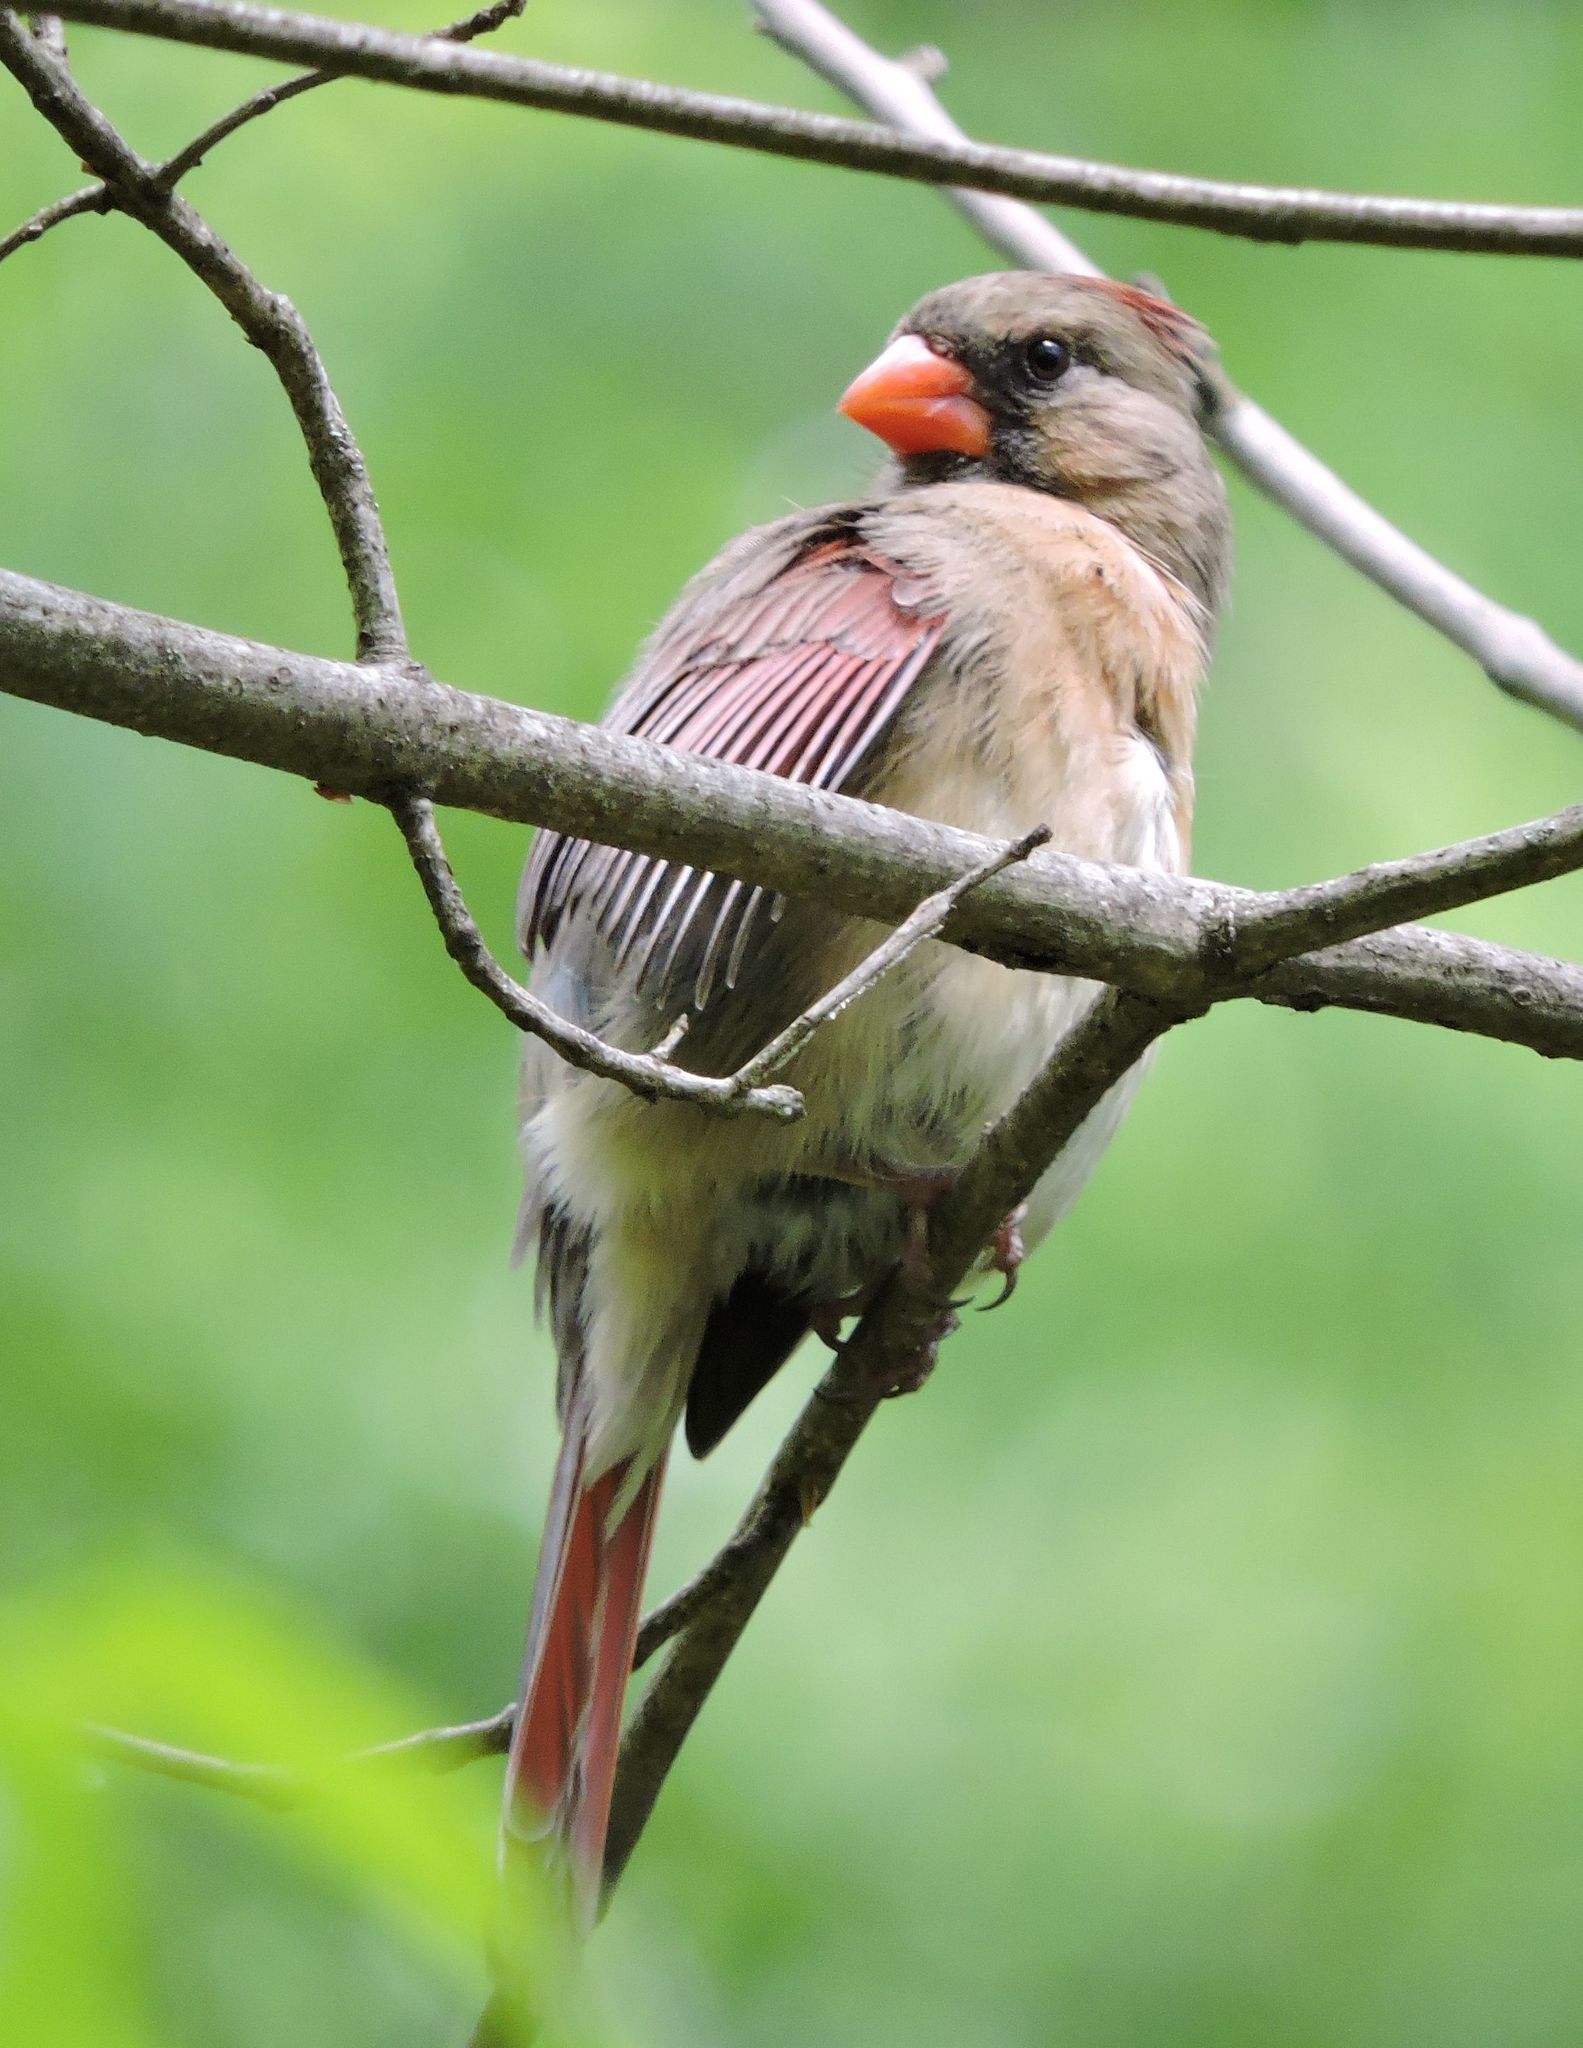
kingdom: Animalia
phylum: Chordata
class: Aves
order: Passeriformes
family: Cardinalidae
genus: Cardinalis
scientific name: Cardinalis cardinalis
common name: Northern cardinal
